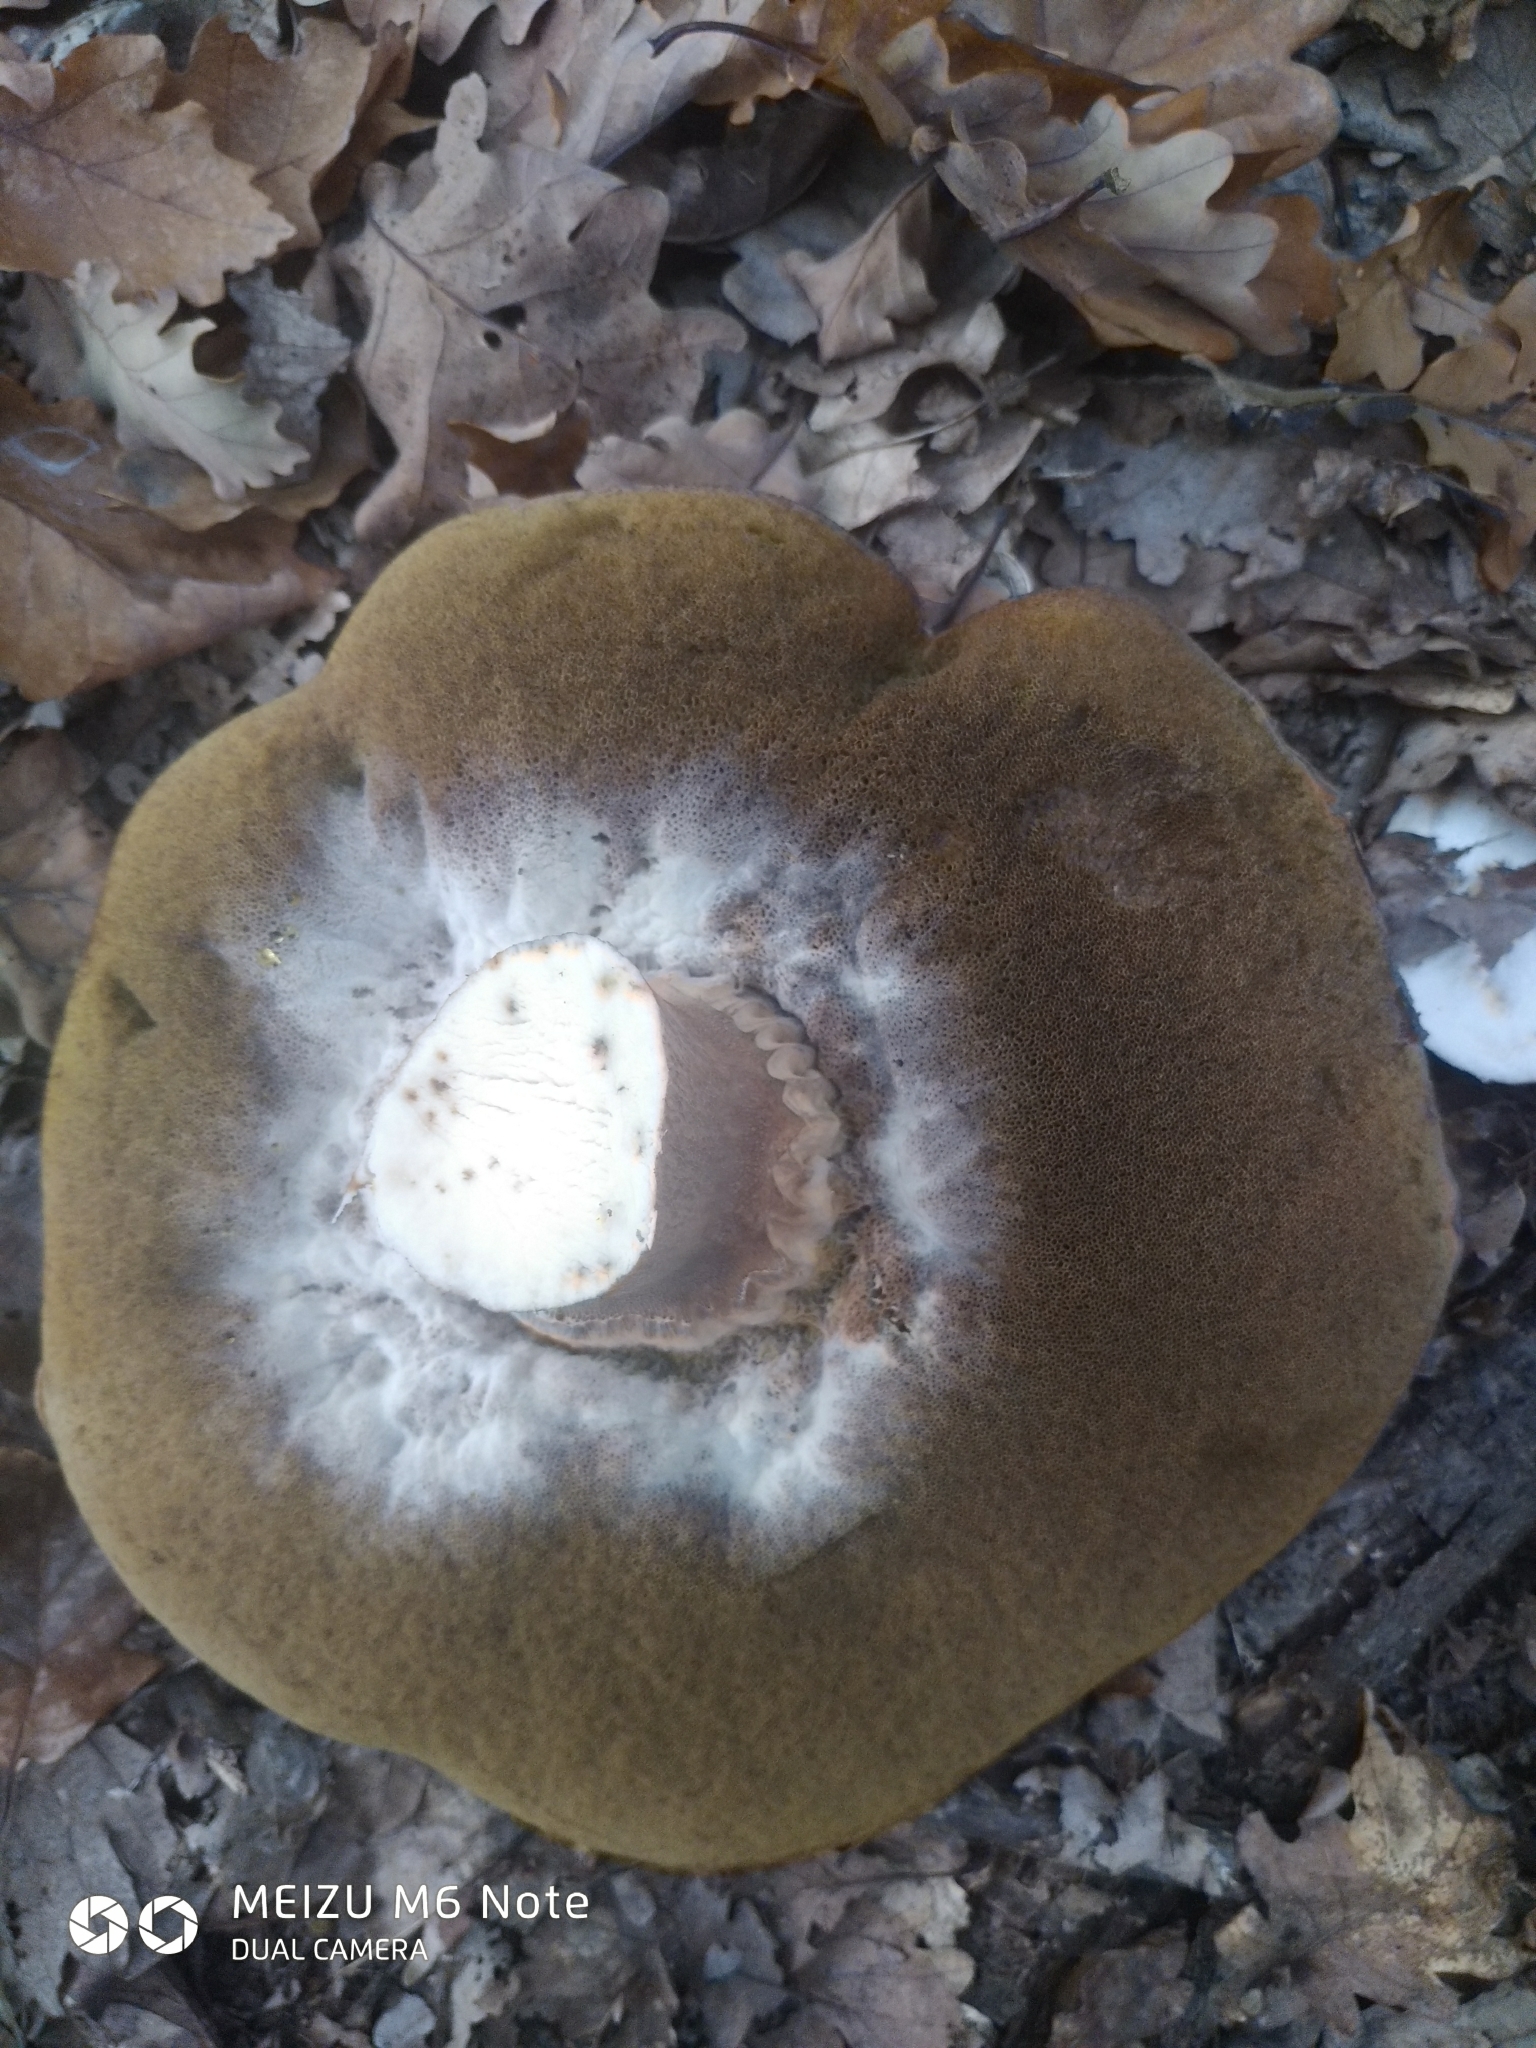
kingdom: Fungi
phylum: Basidiomycota
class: Agaricomycetes
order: Boletales
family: Boletaceae
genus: Boletus
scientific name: Boletus aereus
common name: Bronze bolete
